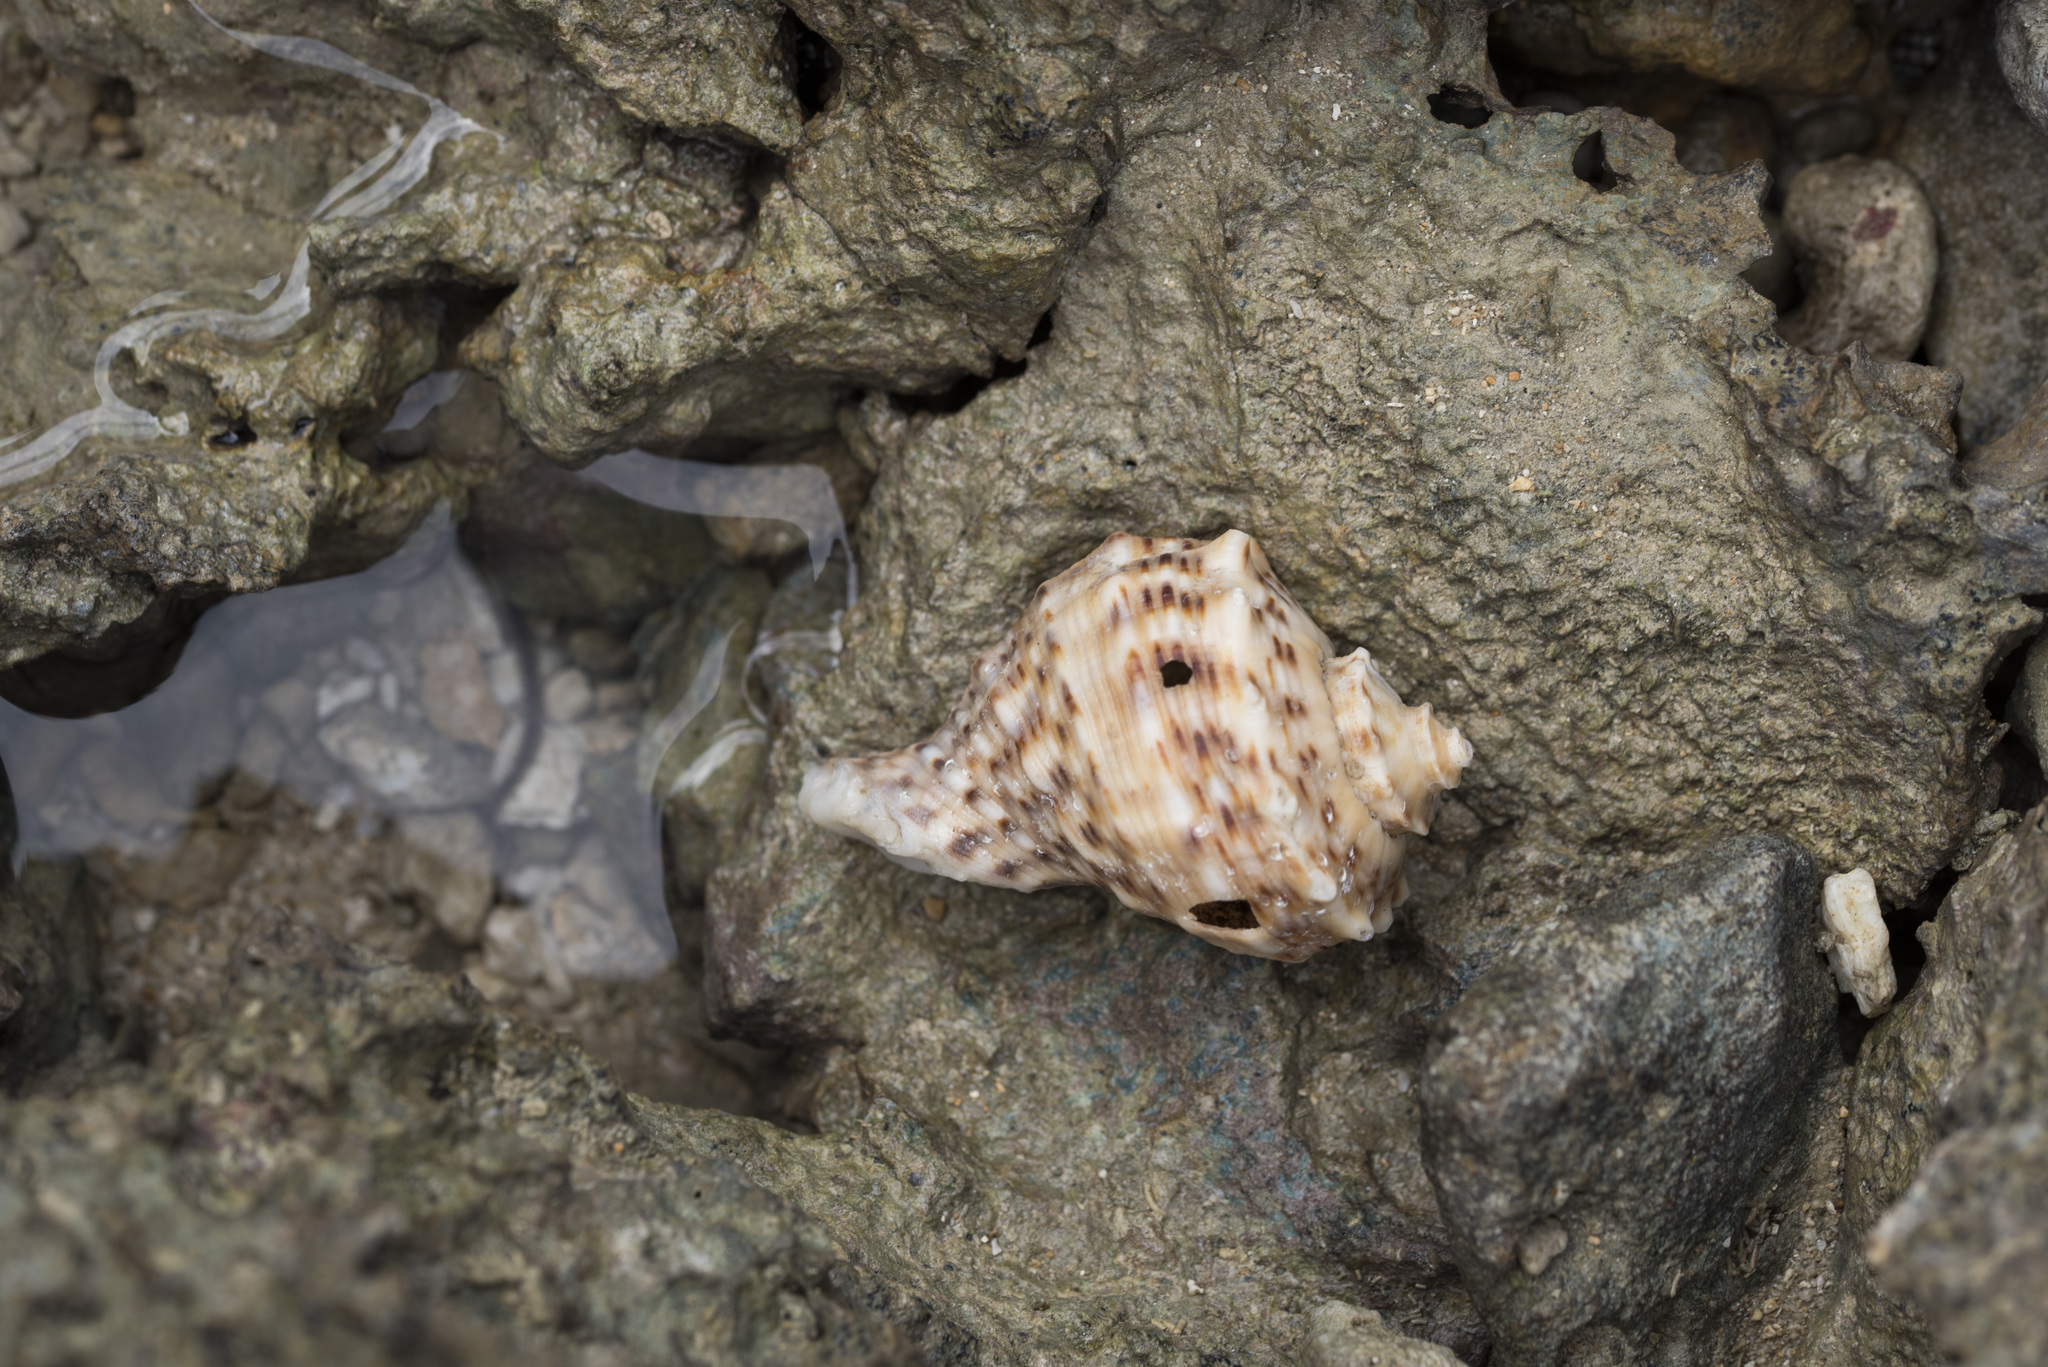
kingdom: Animalia
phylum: Mollusca
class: Gastropoda
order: Neogastropoda
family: Muricidae
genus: Rapana
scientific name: Rapana venosa
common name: Veined rapa whelk
